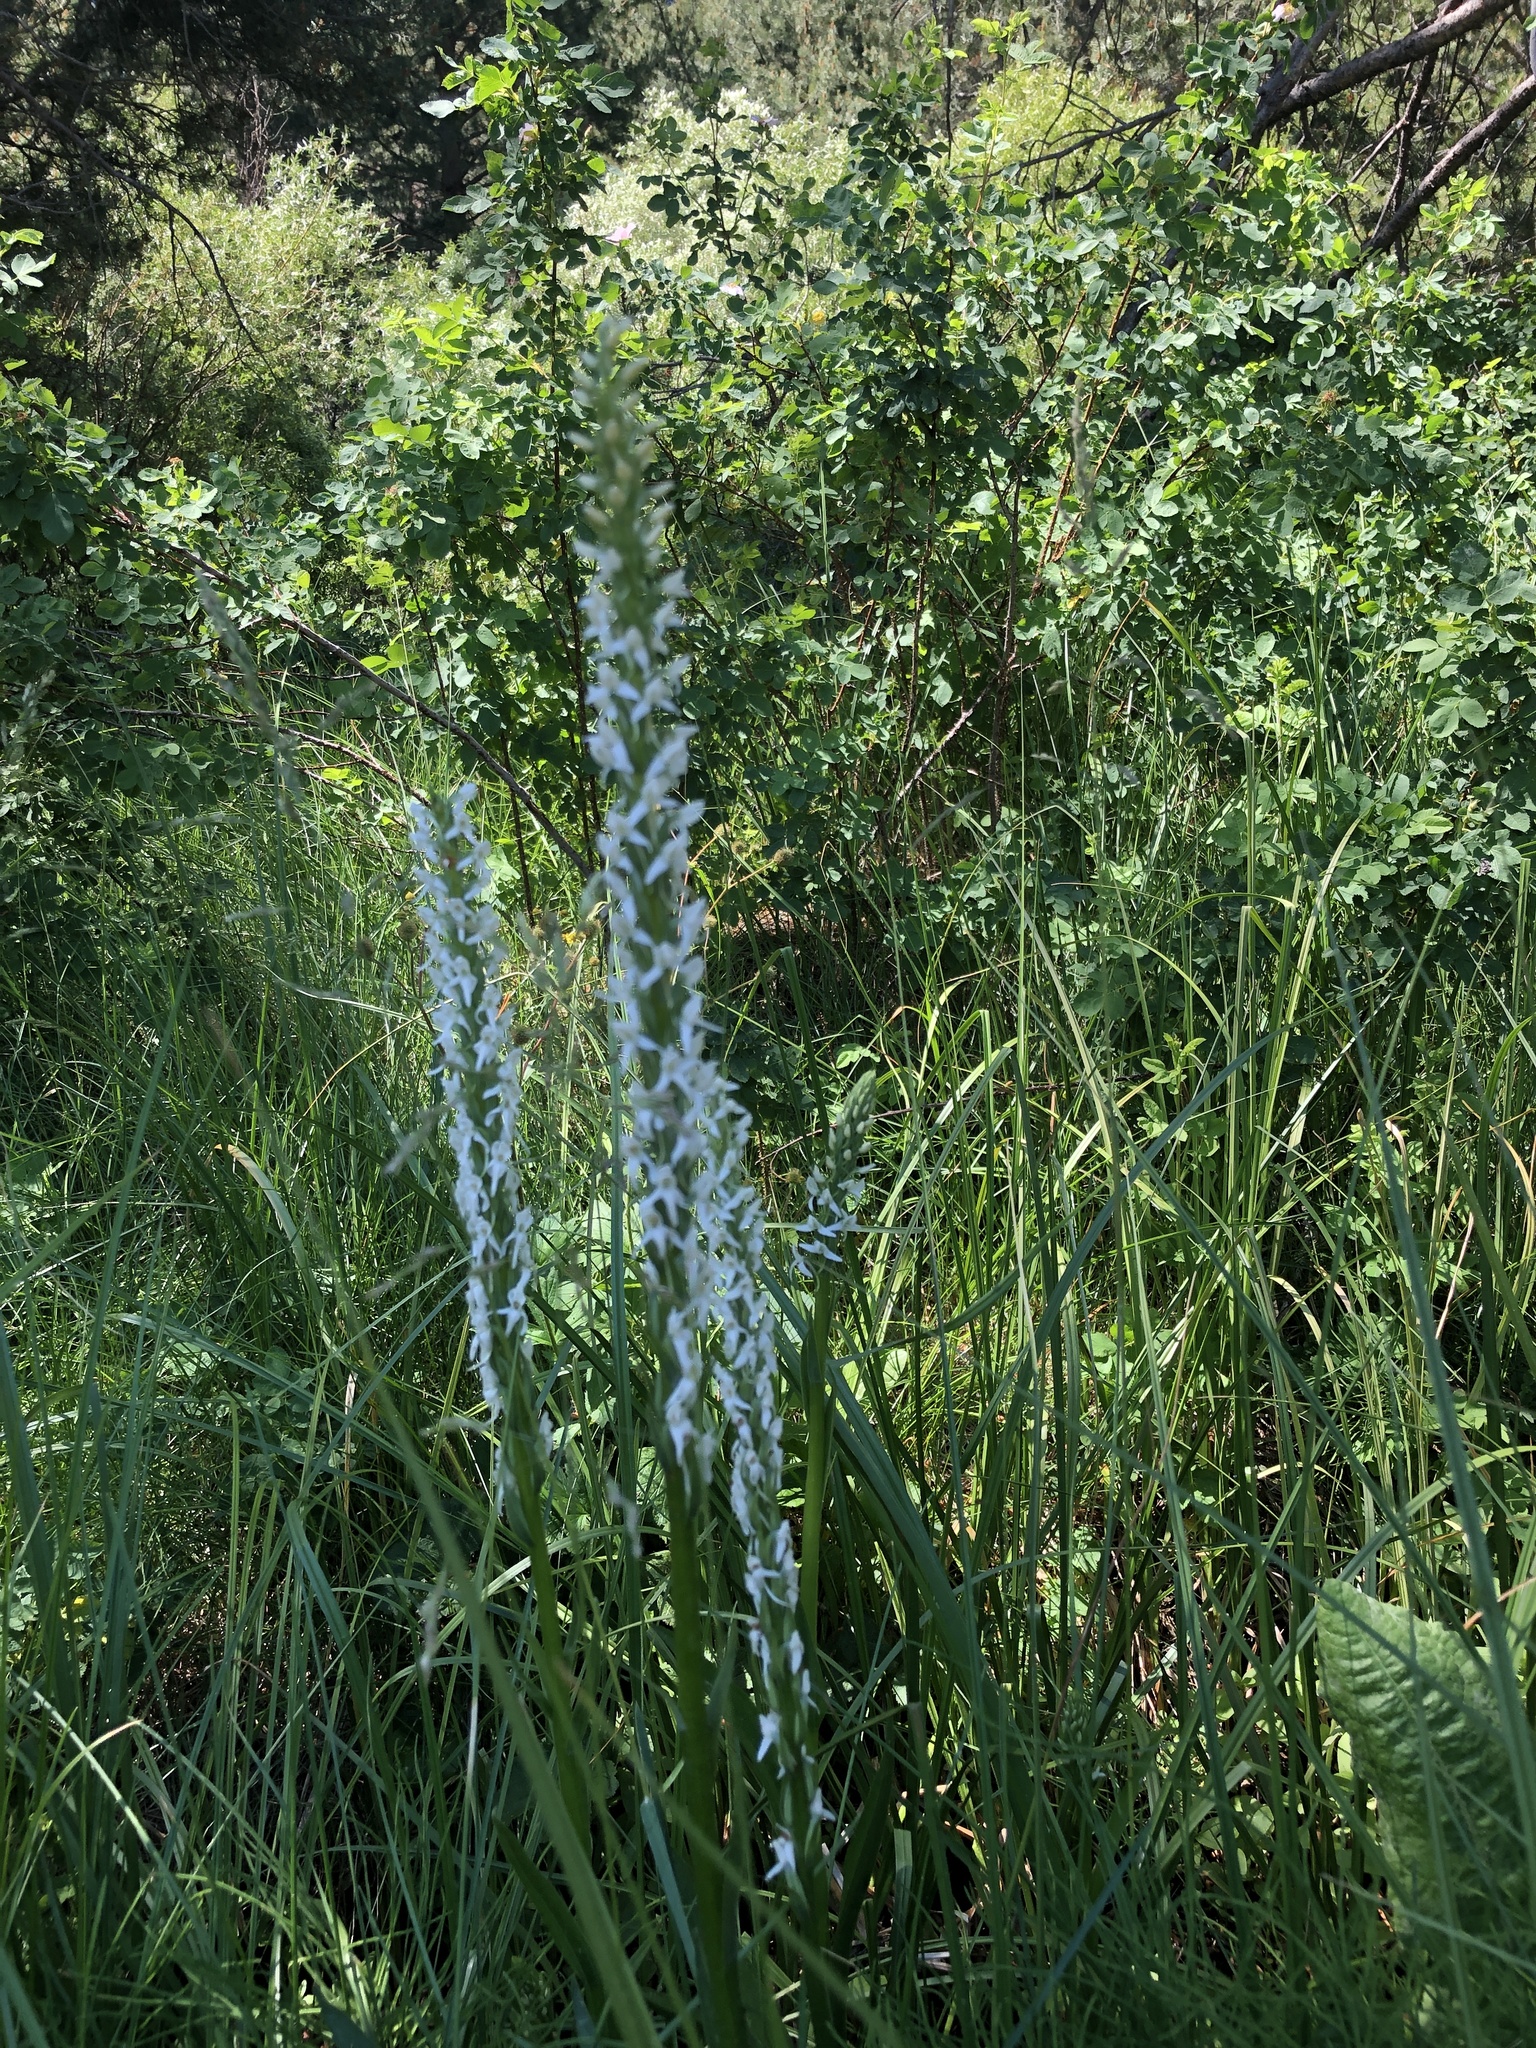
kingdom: Plantae
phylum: Tracheophyta
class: Liliopsida
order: Asparagales
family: Orchidaceae
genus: Platanthera
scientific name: Platanthera dilatata
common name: Bog candles
